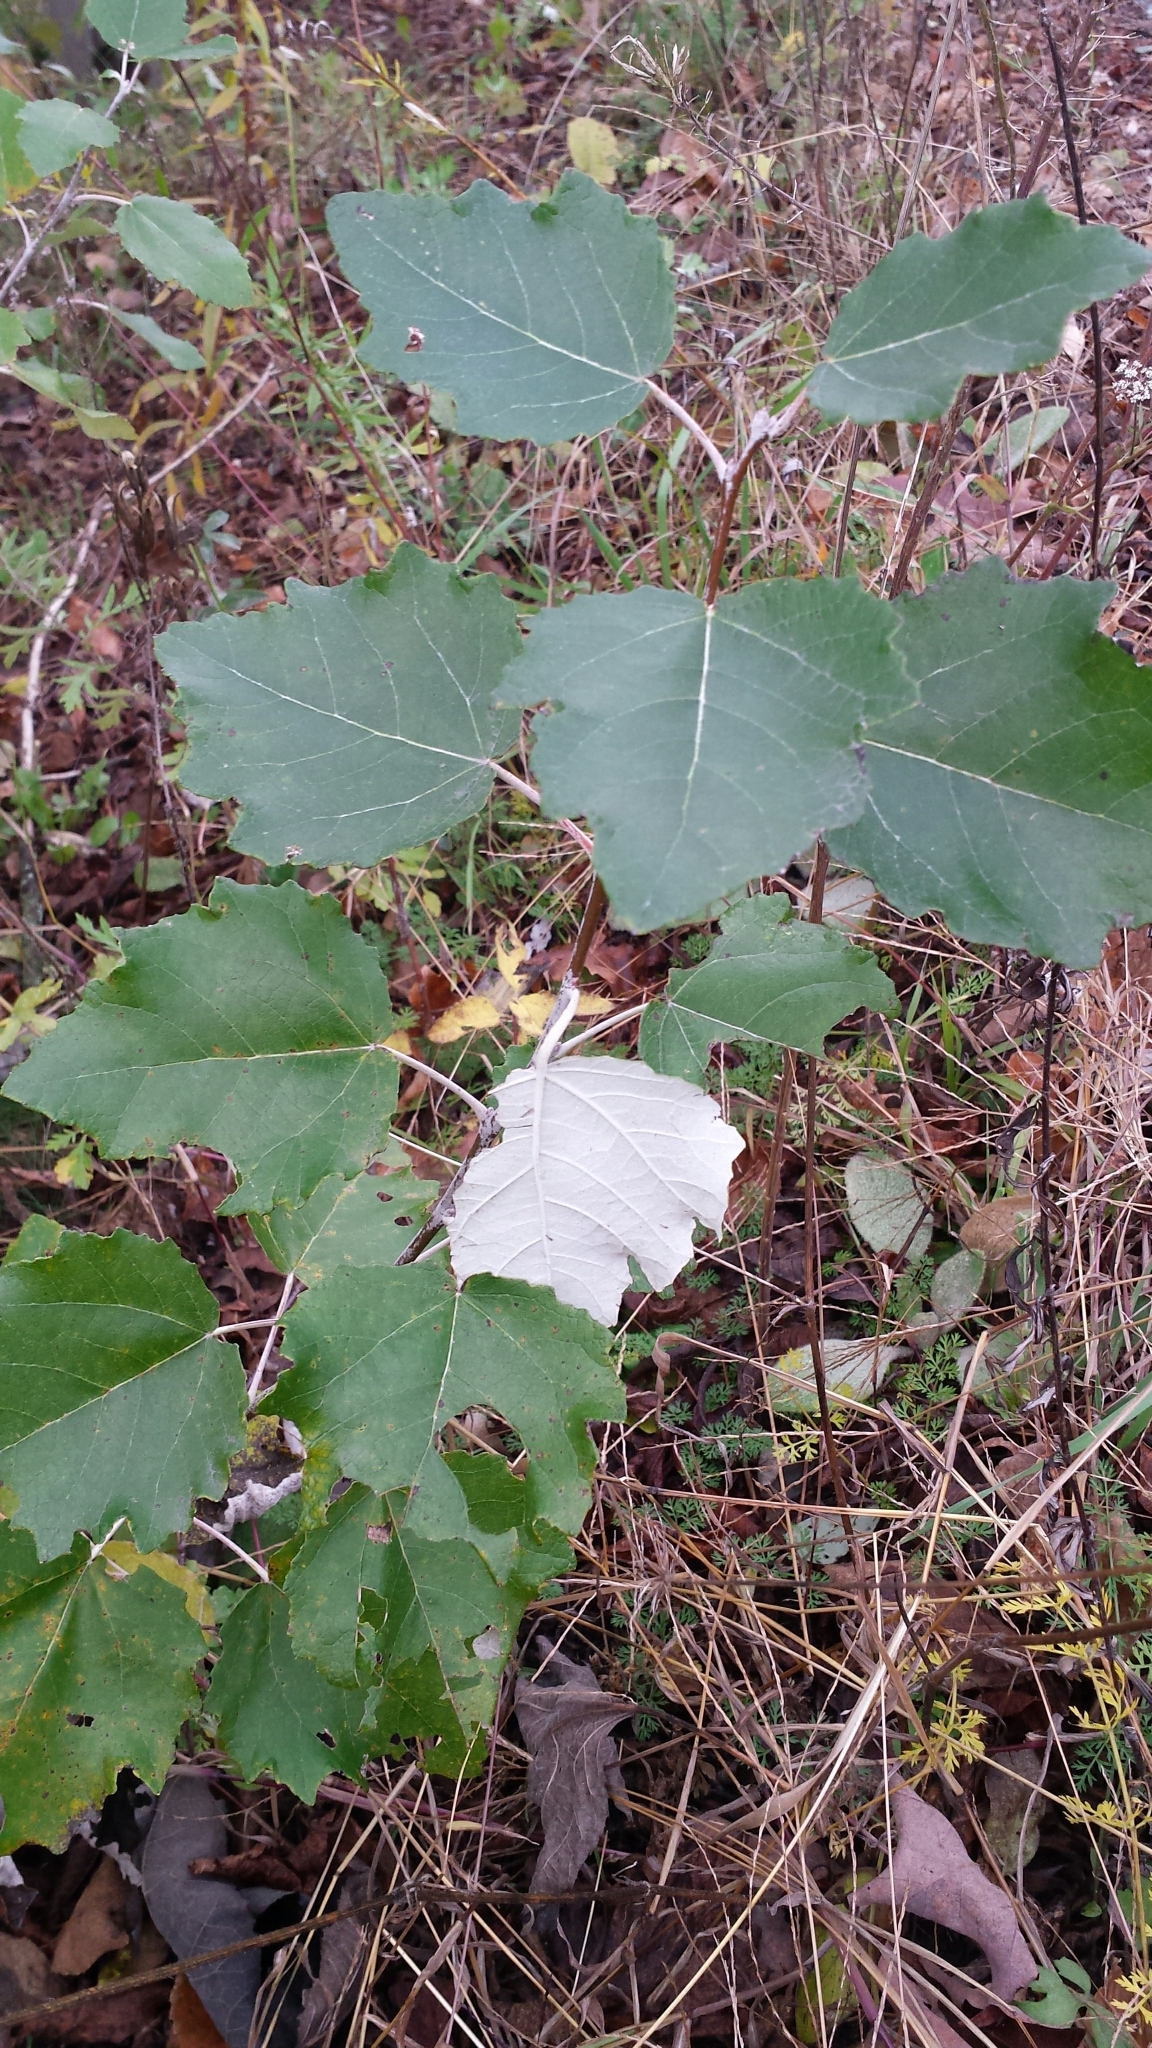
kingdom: Plantae
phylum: Tracheophyta
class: Magnoliopsida
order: Malpighiales
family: Salicaceae
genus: Populus
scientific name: Populus alba
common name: White poplar
